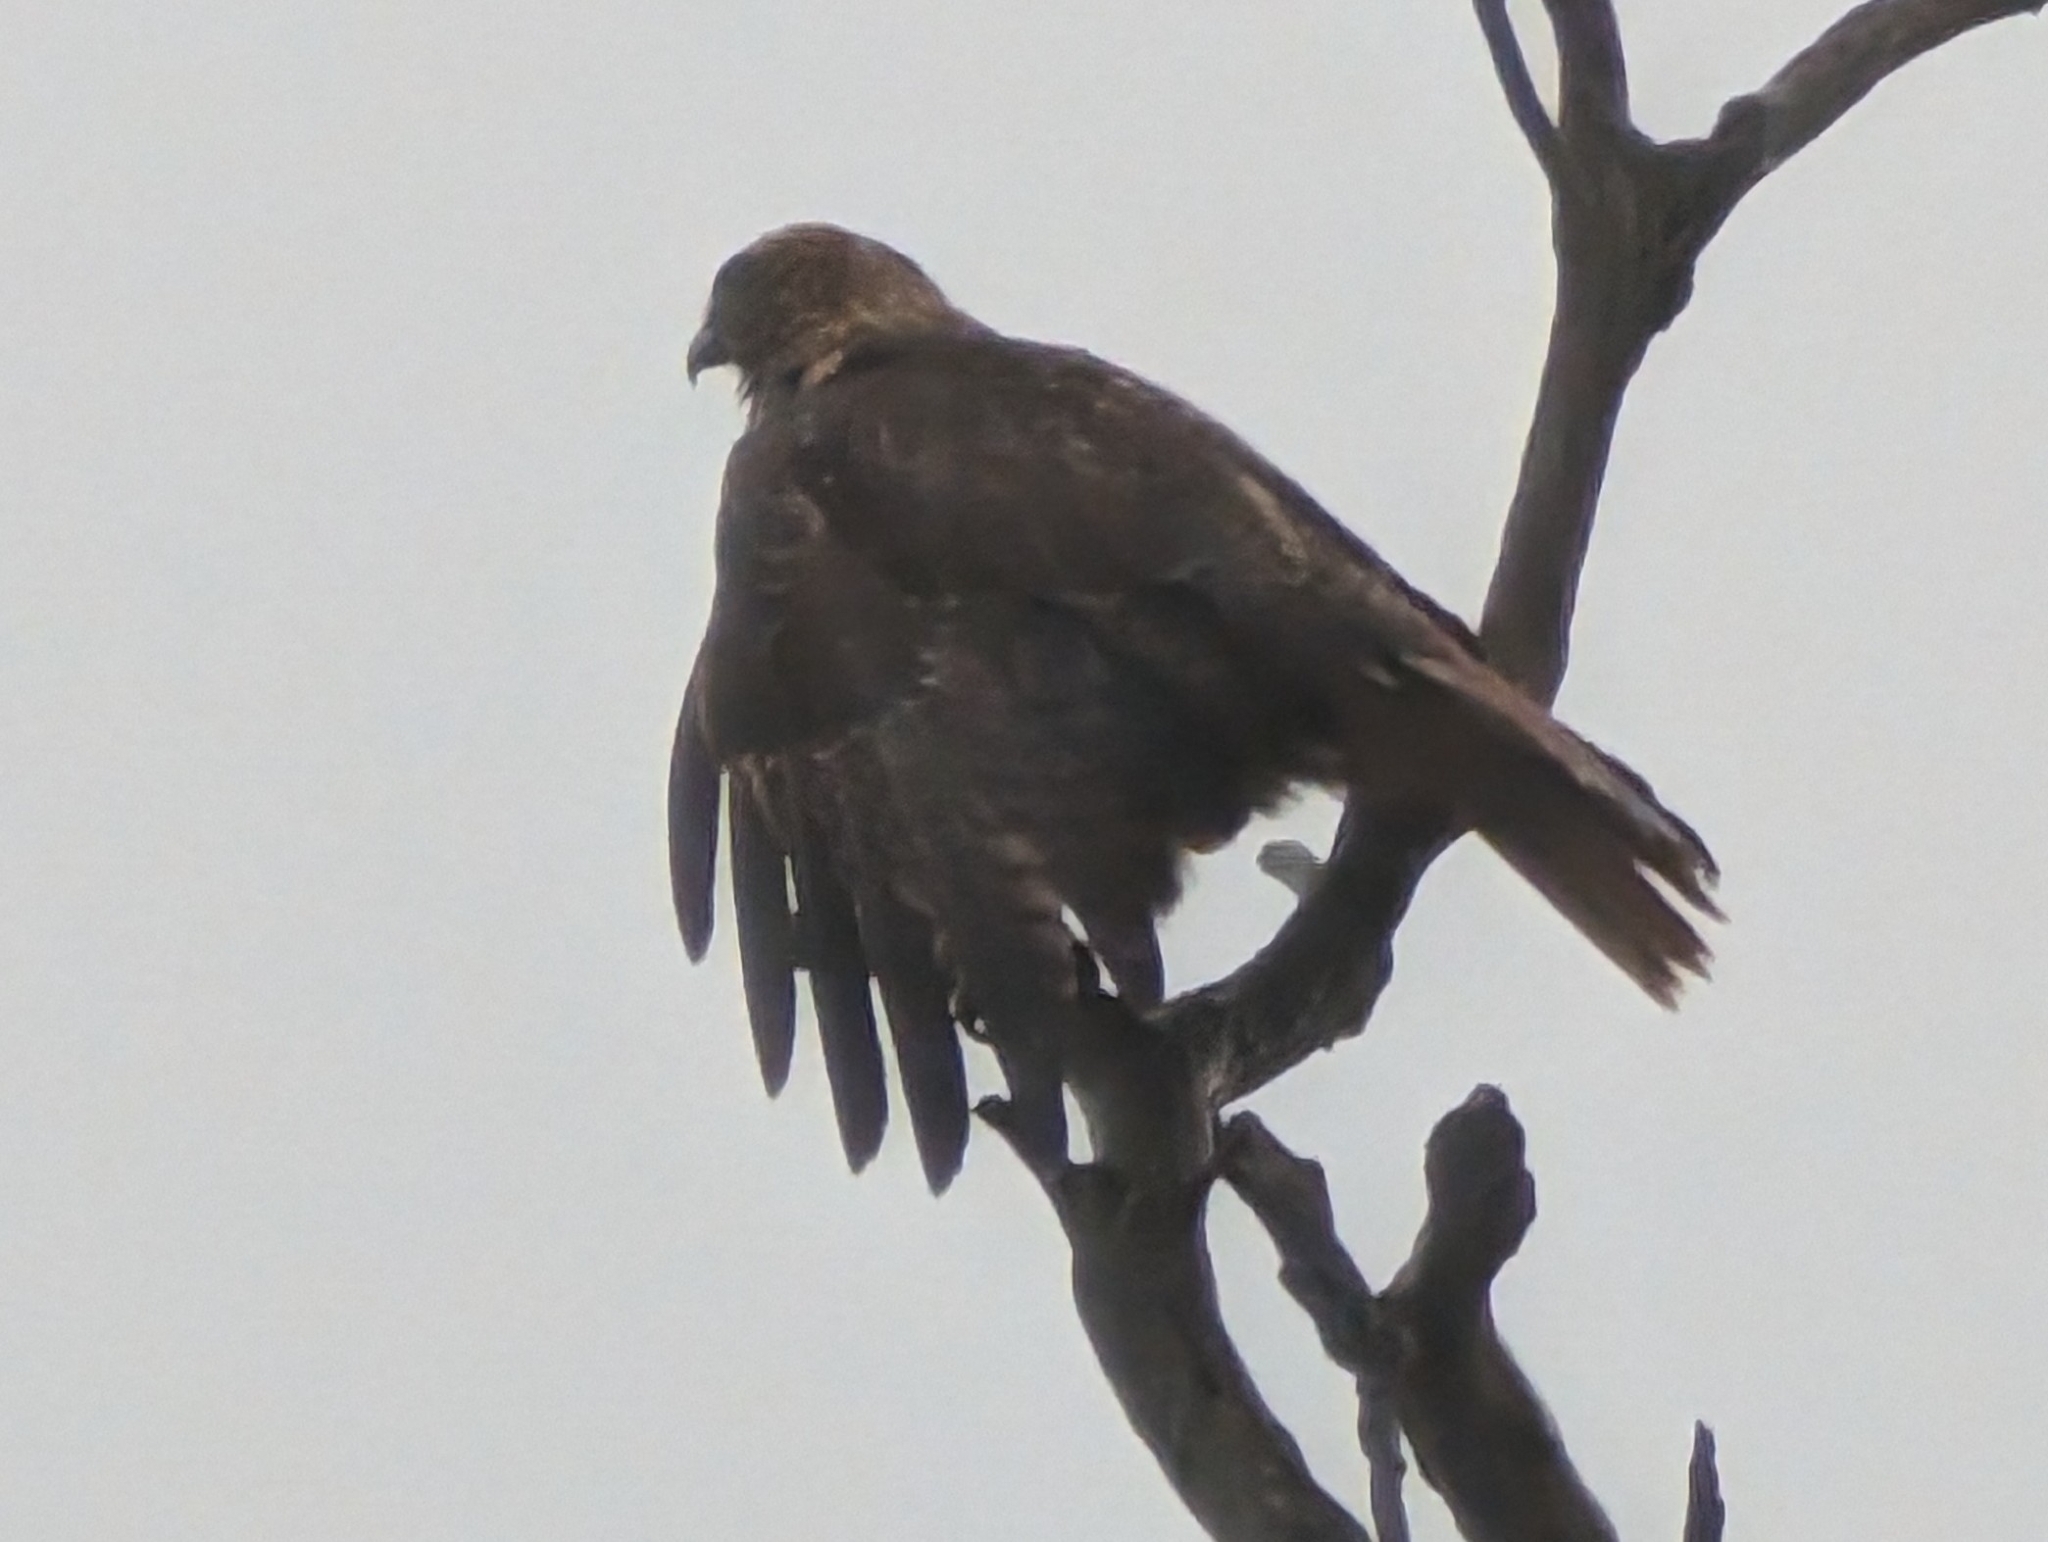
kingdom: Animalia
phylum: Chordata
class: Aves
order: Accipitriformes
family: Accipitridae
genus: Buteo
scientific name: Buteo jamaicensis
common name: Red-tailed hawk
